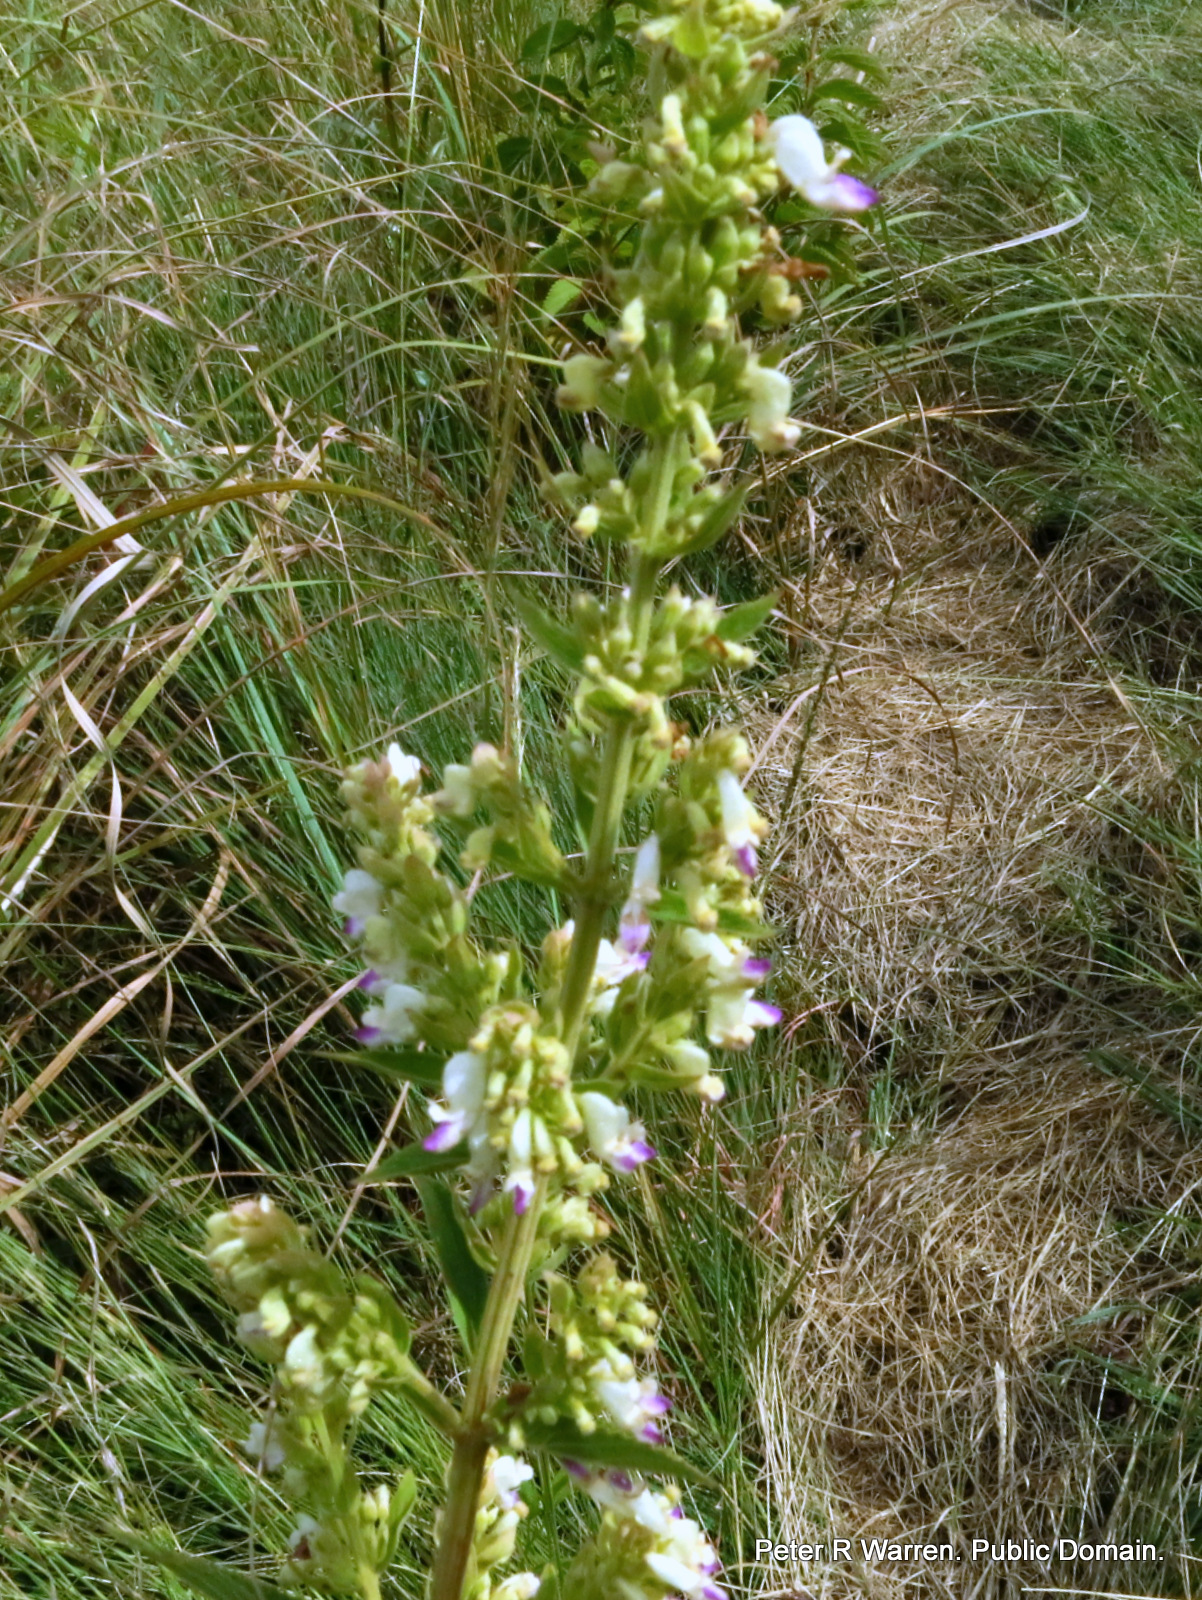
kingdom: Plantae
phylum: Tracheophyta
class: Magnoliopsida
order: Lamiales
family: Lamiaceae
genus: Coleus
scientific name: Coleus calycinus
